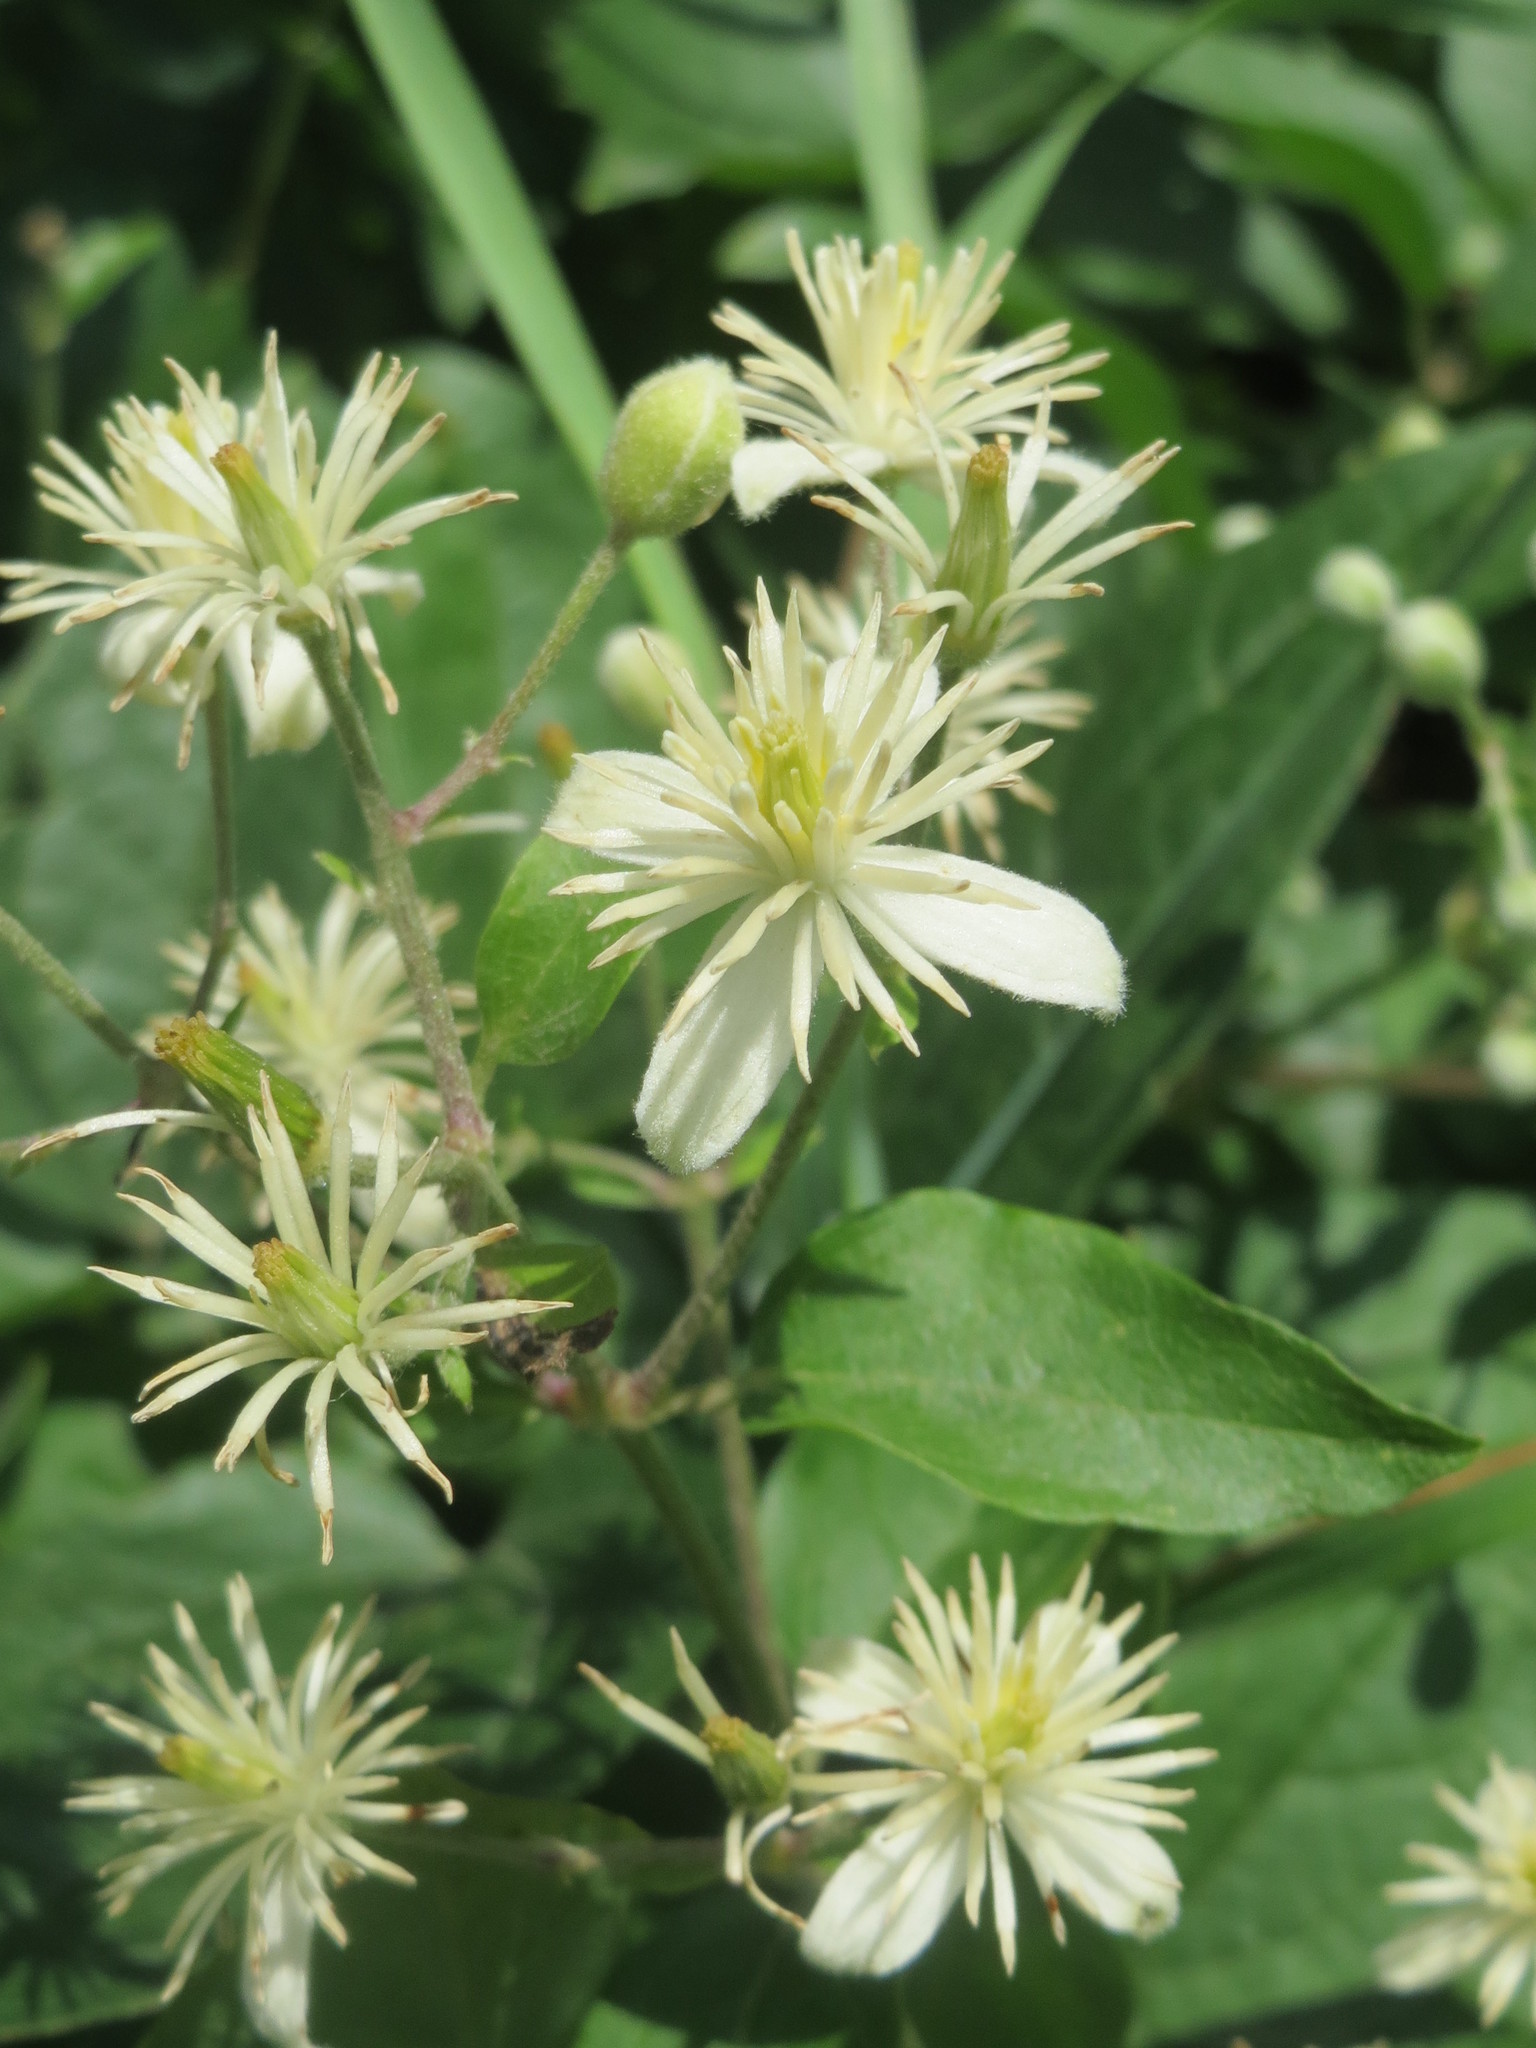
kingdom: Plantae
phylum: Tracheophyta
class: Magnoliopsida
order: Ranunculales
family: Ranunculaceae
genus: Clematis
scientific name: Clematis vitalba
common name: Evergreen clematis
